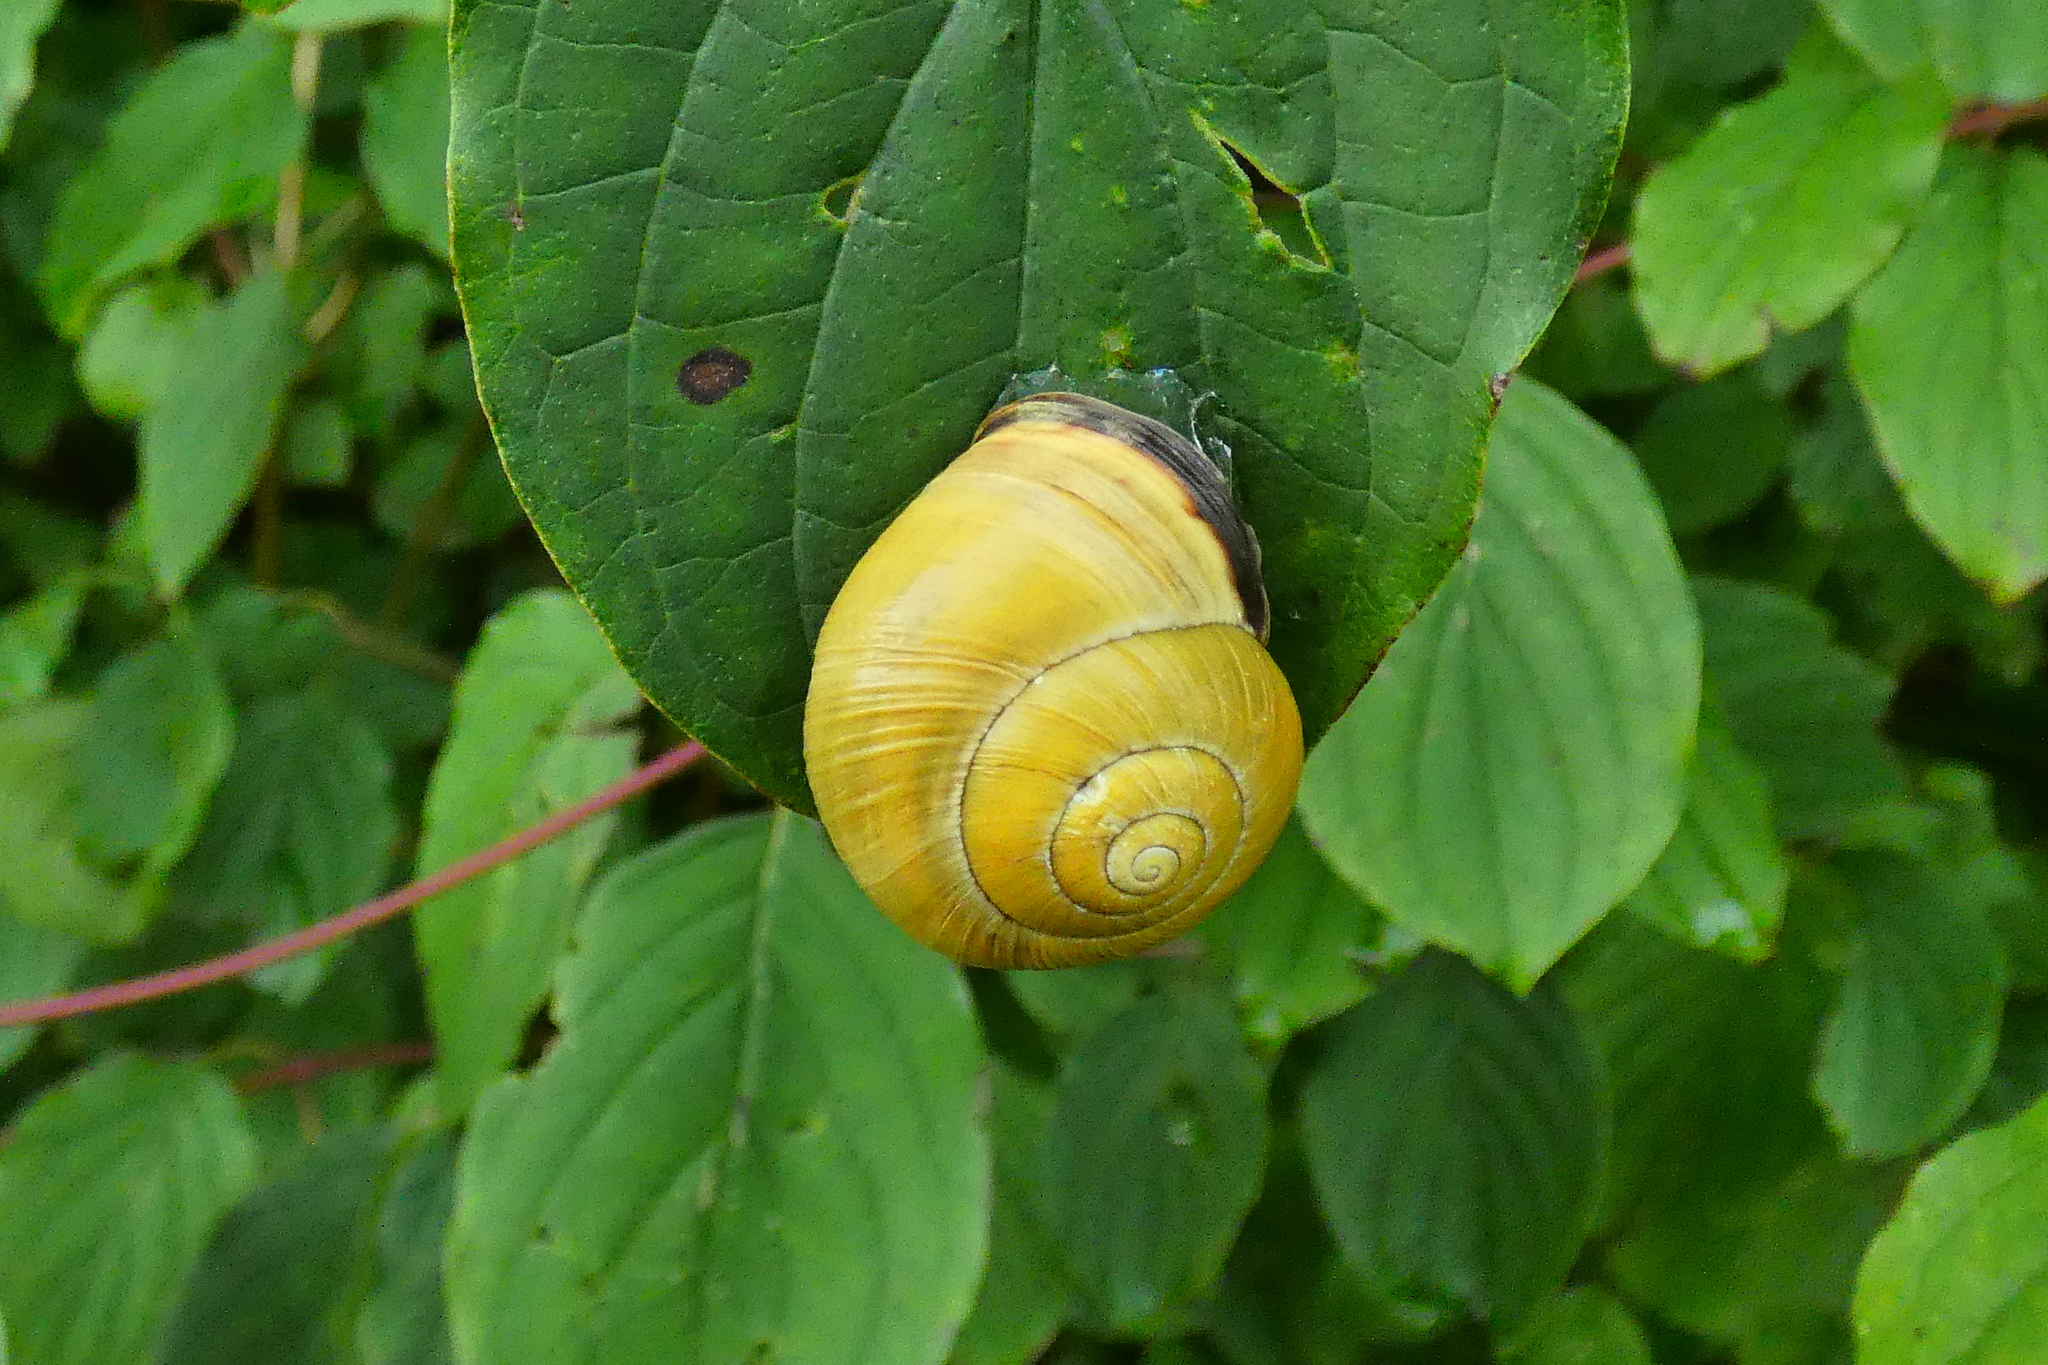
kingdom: Animalia
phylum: Mollusca
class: Gastropoda
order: Stylommatophora
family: Helicidae
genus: Cepaea
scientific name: Cepaea nemoralis
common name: Grovesnail
